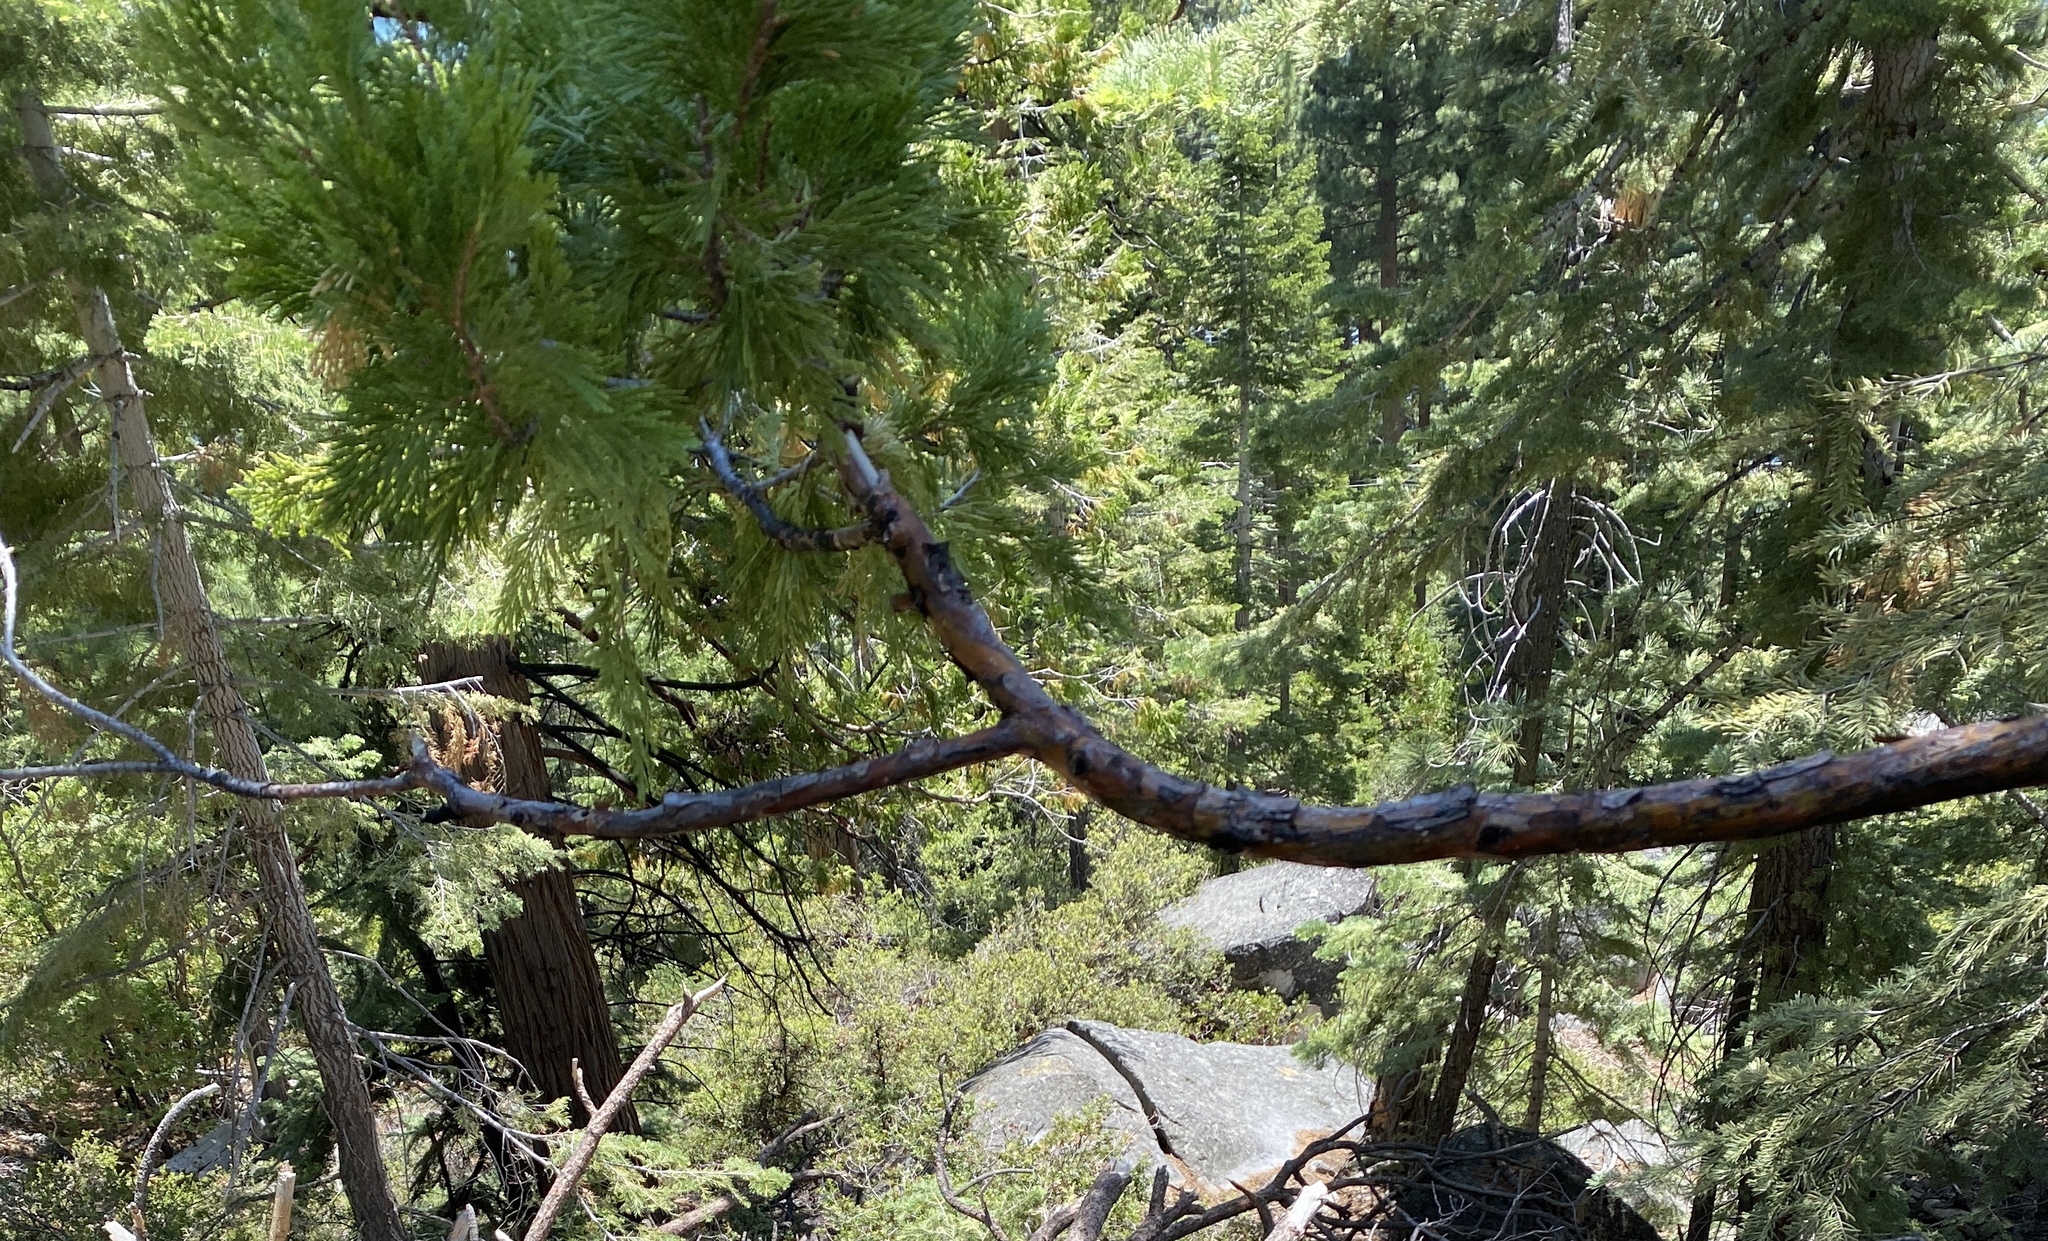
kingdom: Plantae
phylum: Tracheophyta
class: Pinopsida
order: Pinales
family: Cupressaceae
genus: Calocedrus
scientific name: Calocedrus decurrens
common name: Californian incense-cedar
